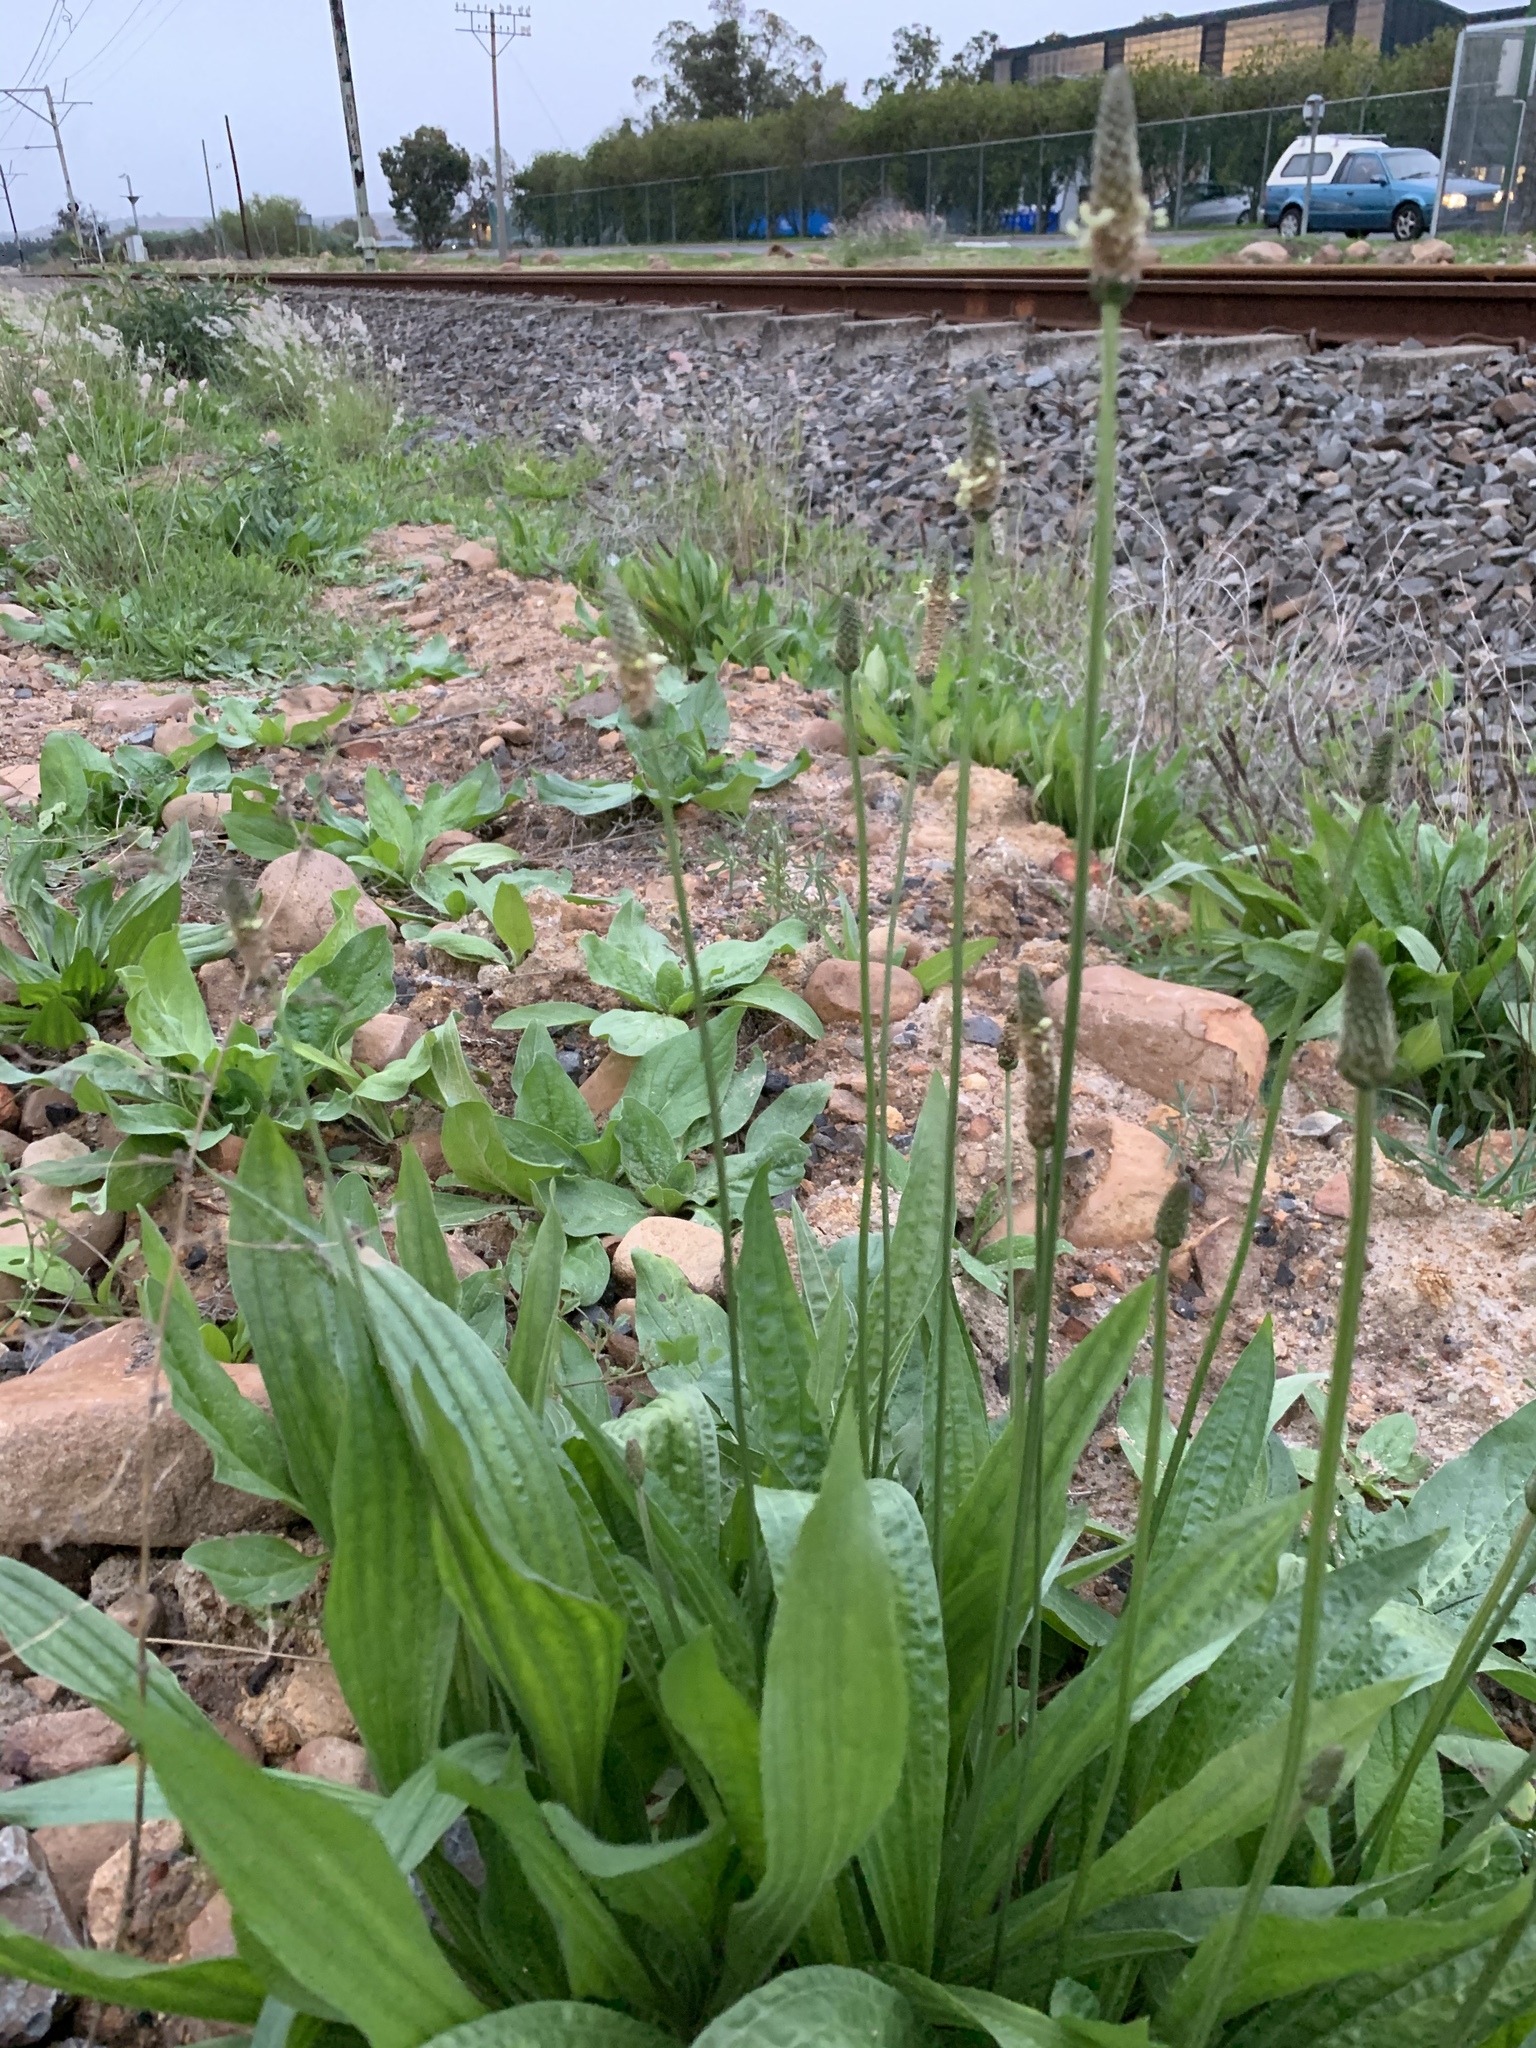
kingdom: Plantae
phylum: Tracheophyta
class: Magnoliopsida
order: Lamiales
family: Plantaginaceae
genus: Plantago
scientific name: Plantago lanceolata
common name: Ribwort plantain
